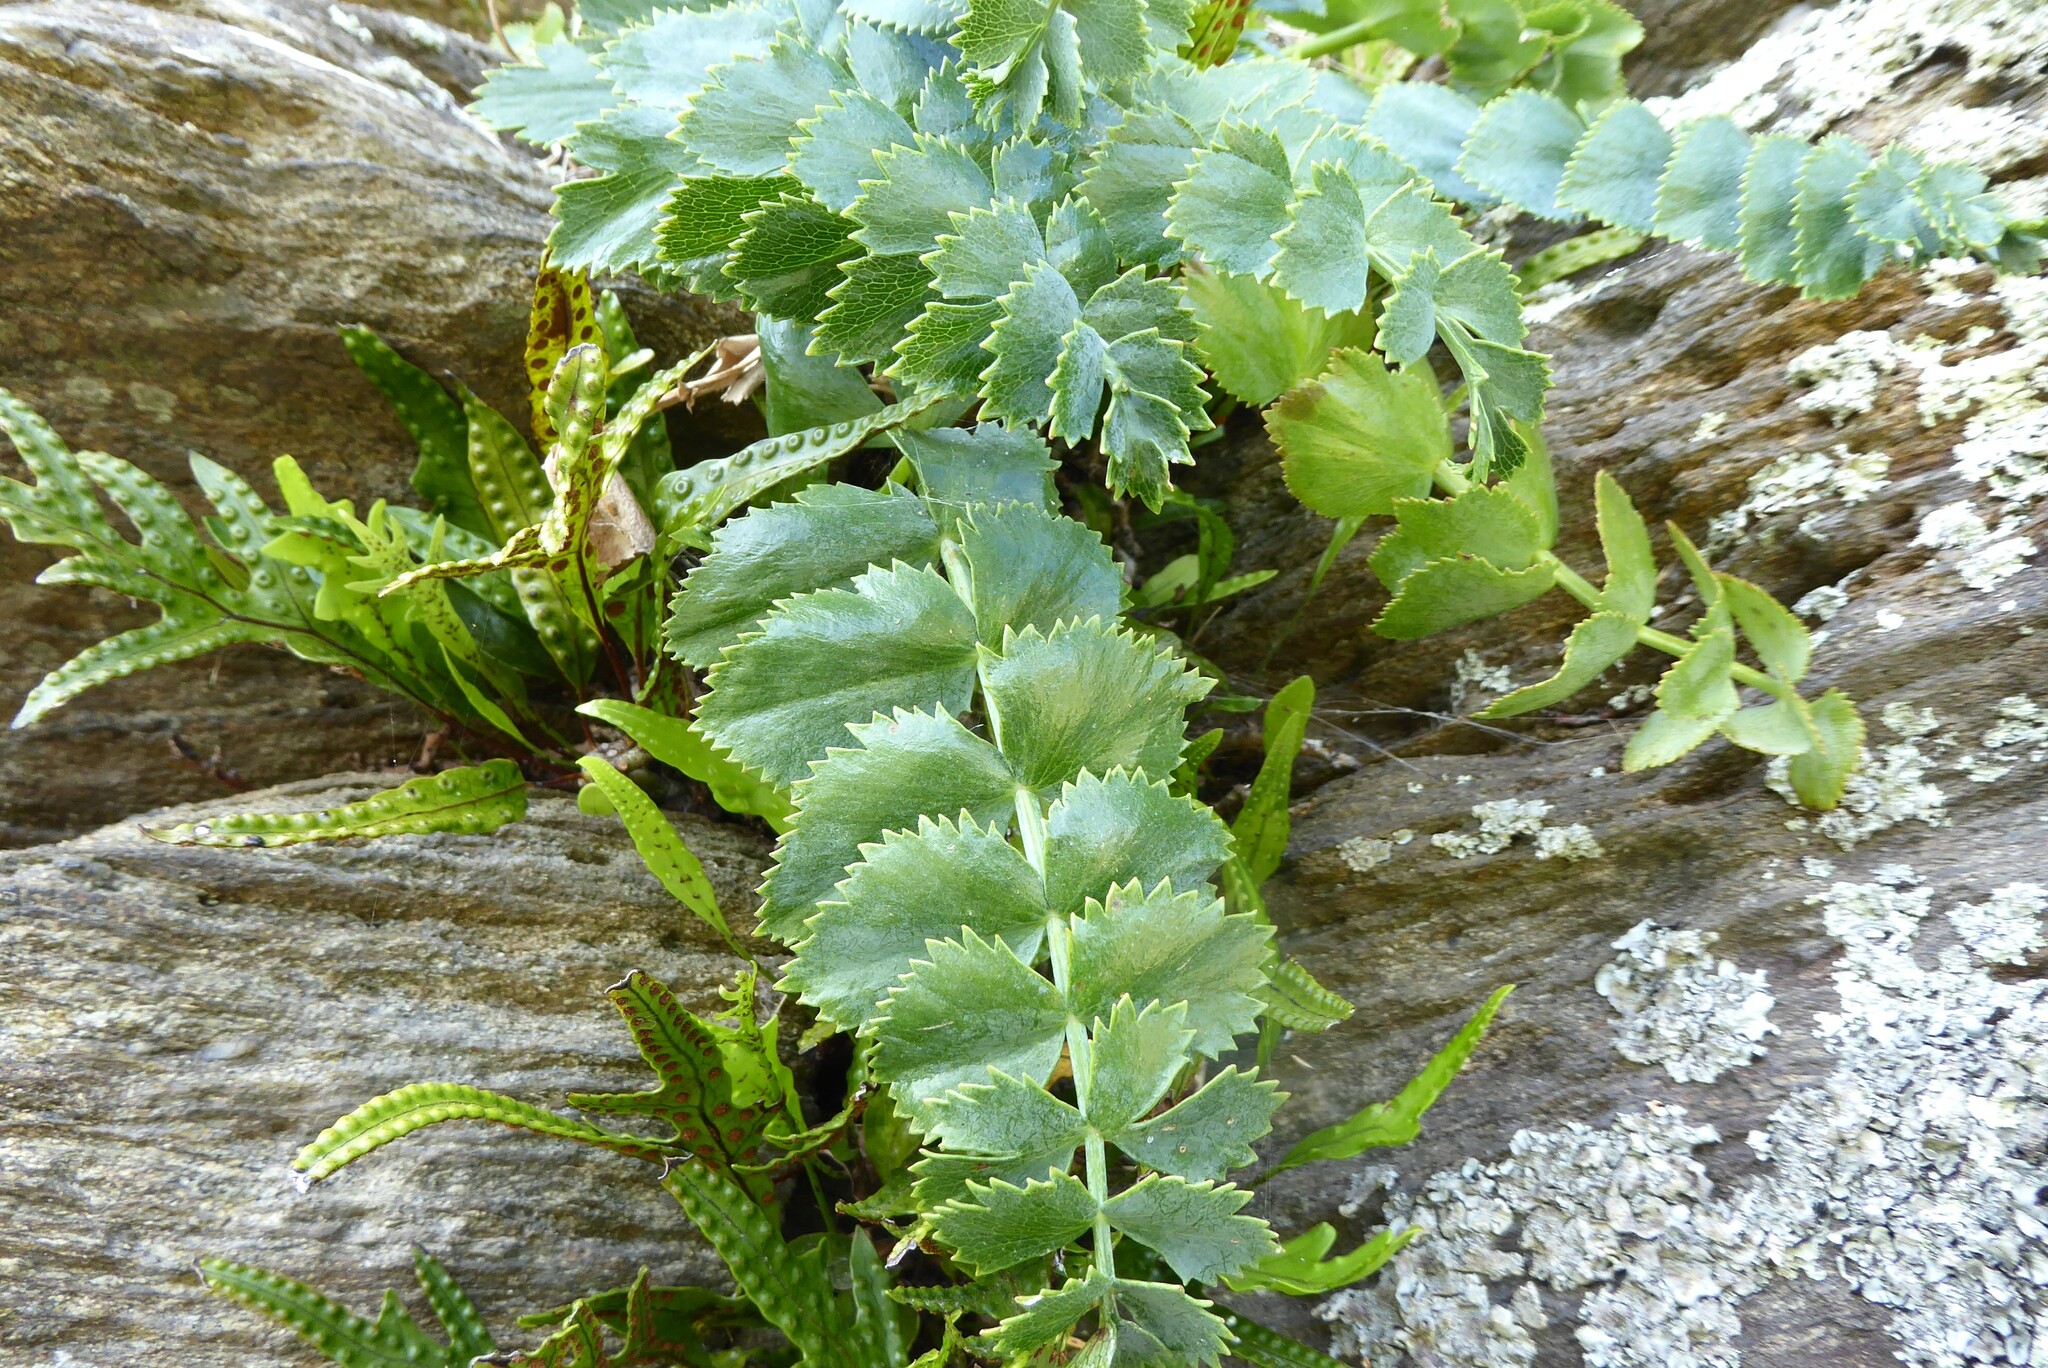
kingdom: Plantae
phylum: Tracheophyta
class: Magnoliopsida
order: Apiales
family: Apiaceae
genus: Gingidia
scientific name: Gingidia grisea
